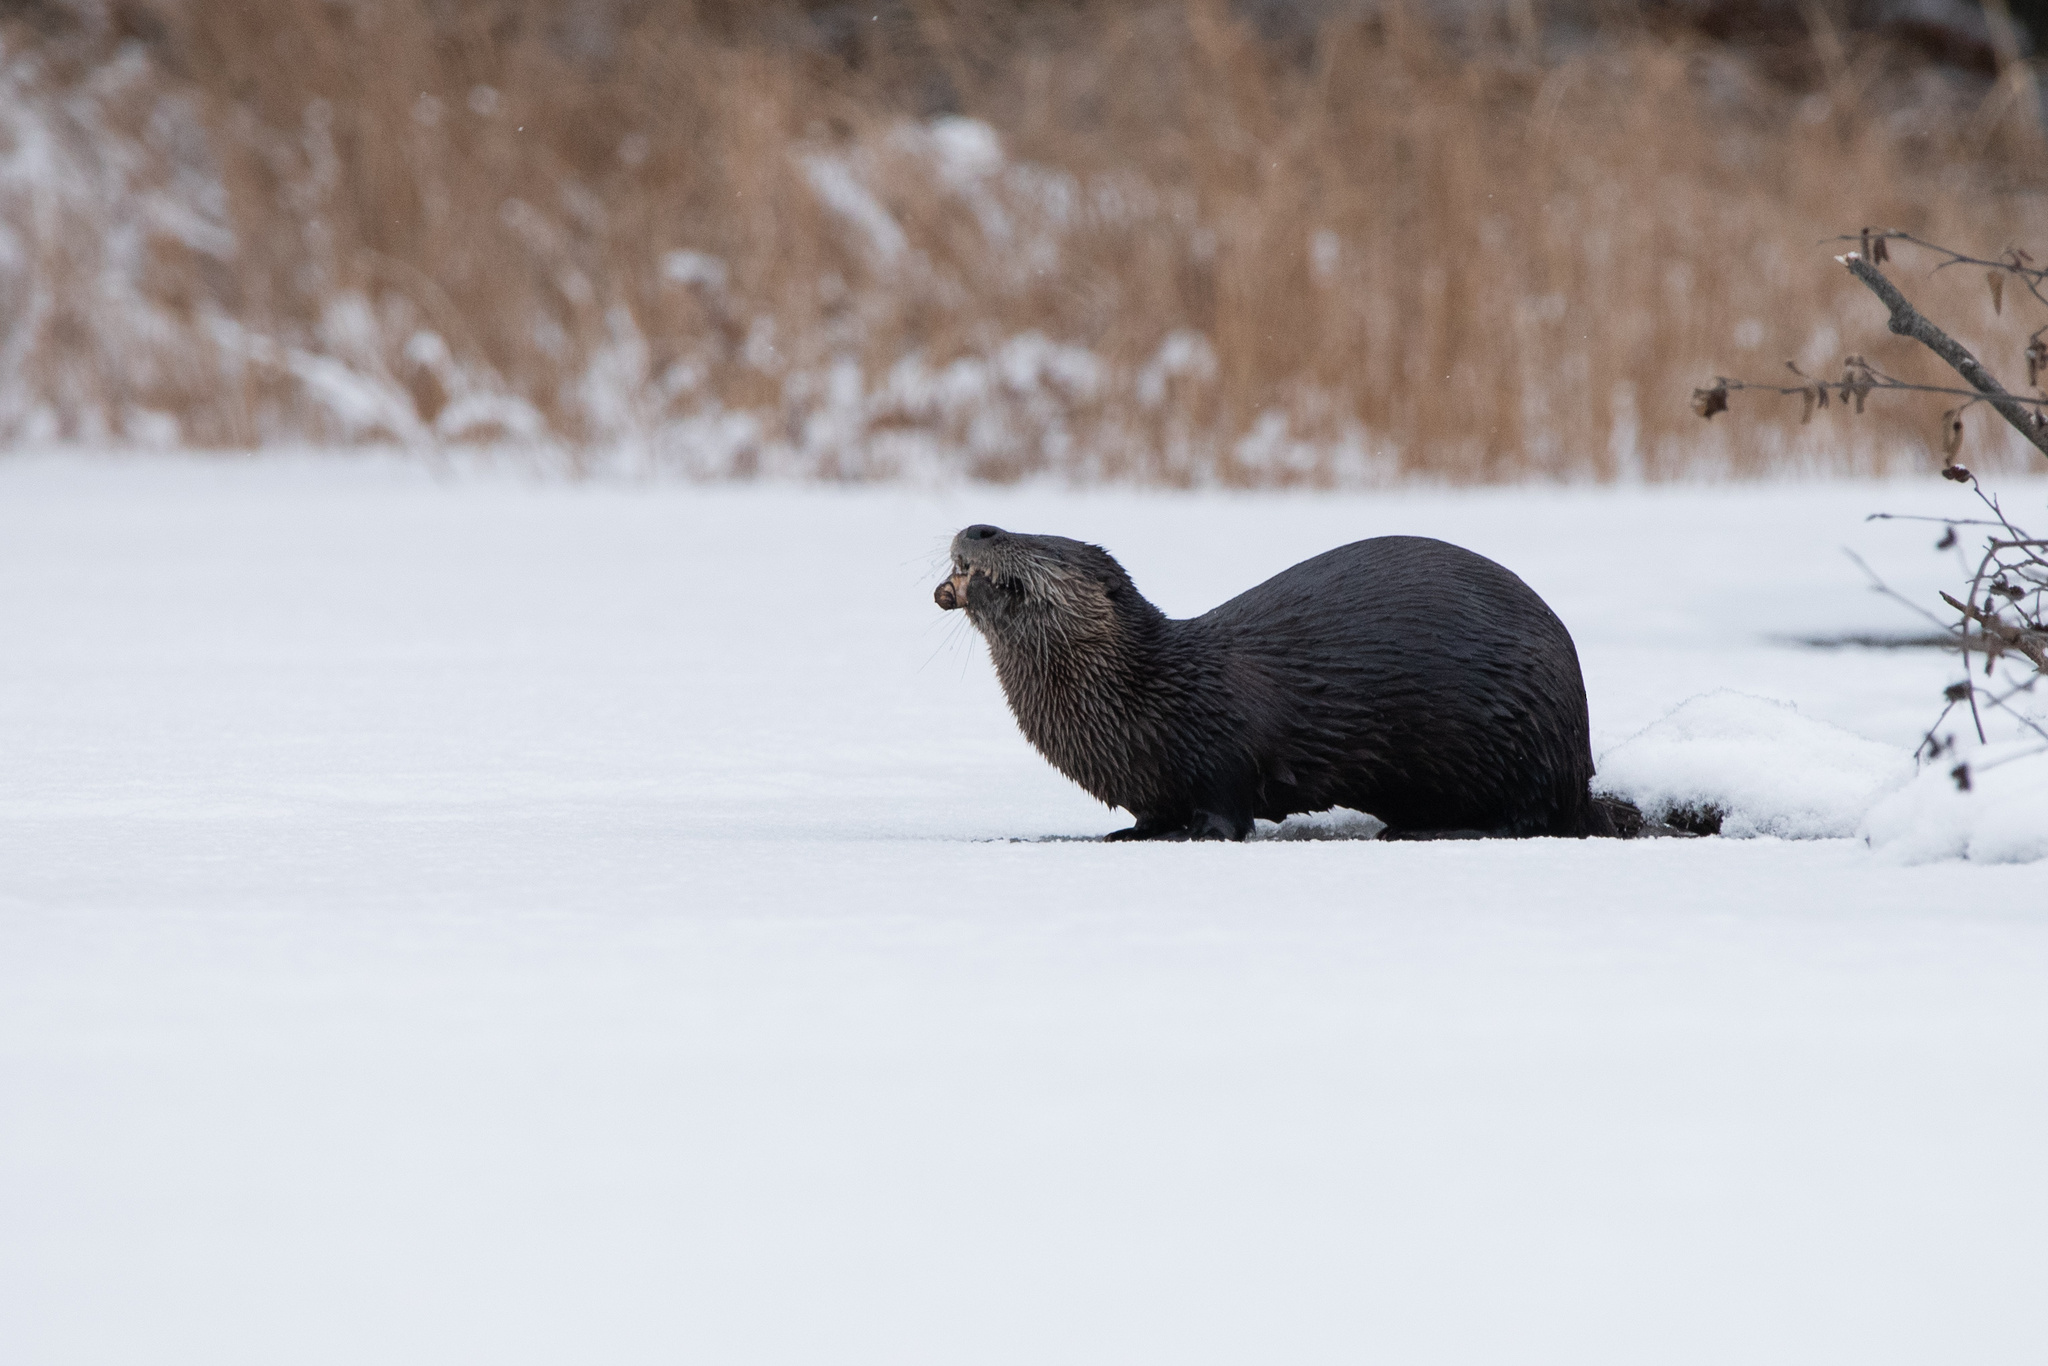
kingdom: Animalia
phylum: Chordata
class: Mammalia
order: Carnivora
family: Mustelidae
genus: Lontra
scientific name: Lontra canadensis
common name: North american river otter
